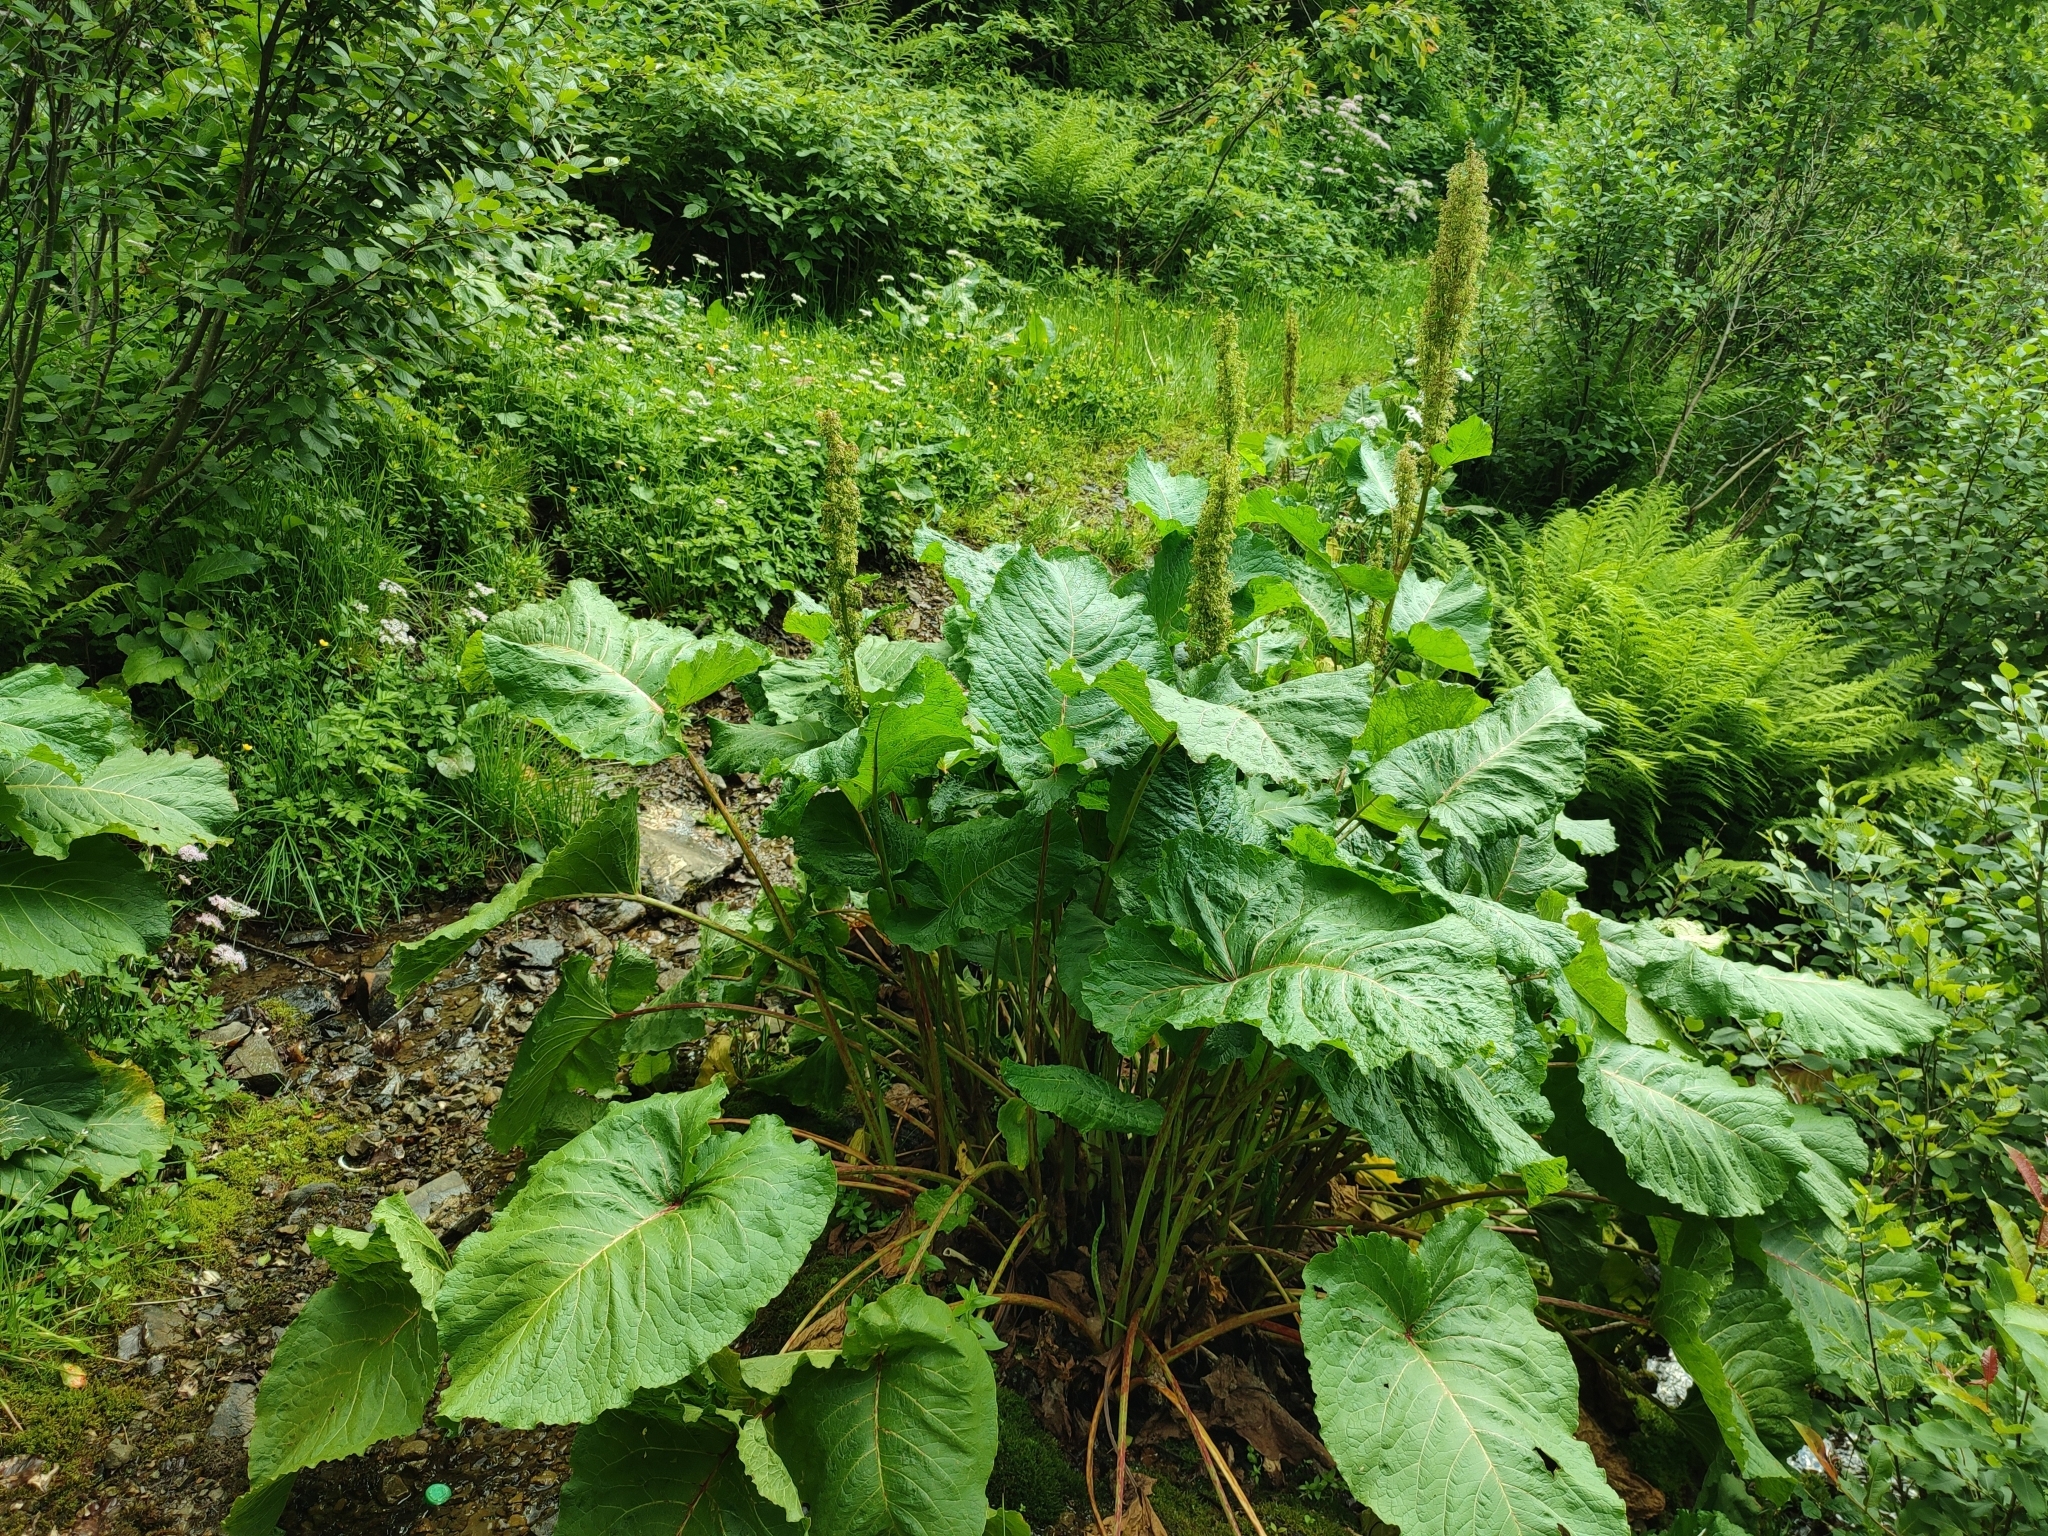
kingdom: Plantae
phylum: Tracheophyta
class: Magnoliopsida
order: Caryophyllales
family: Polygonaceae
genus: Rumex
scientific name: Rumex alpinus
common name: Alpine dock
